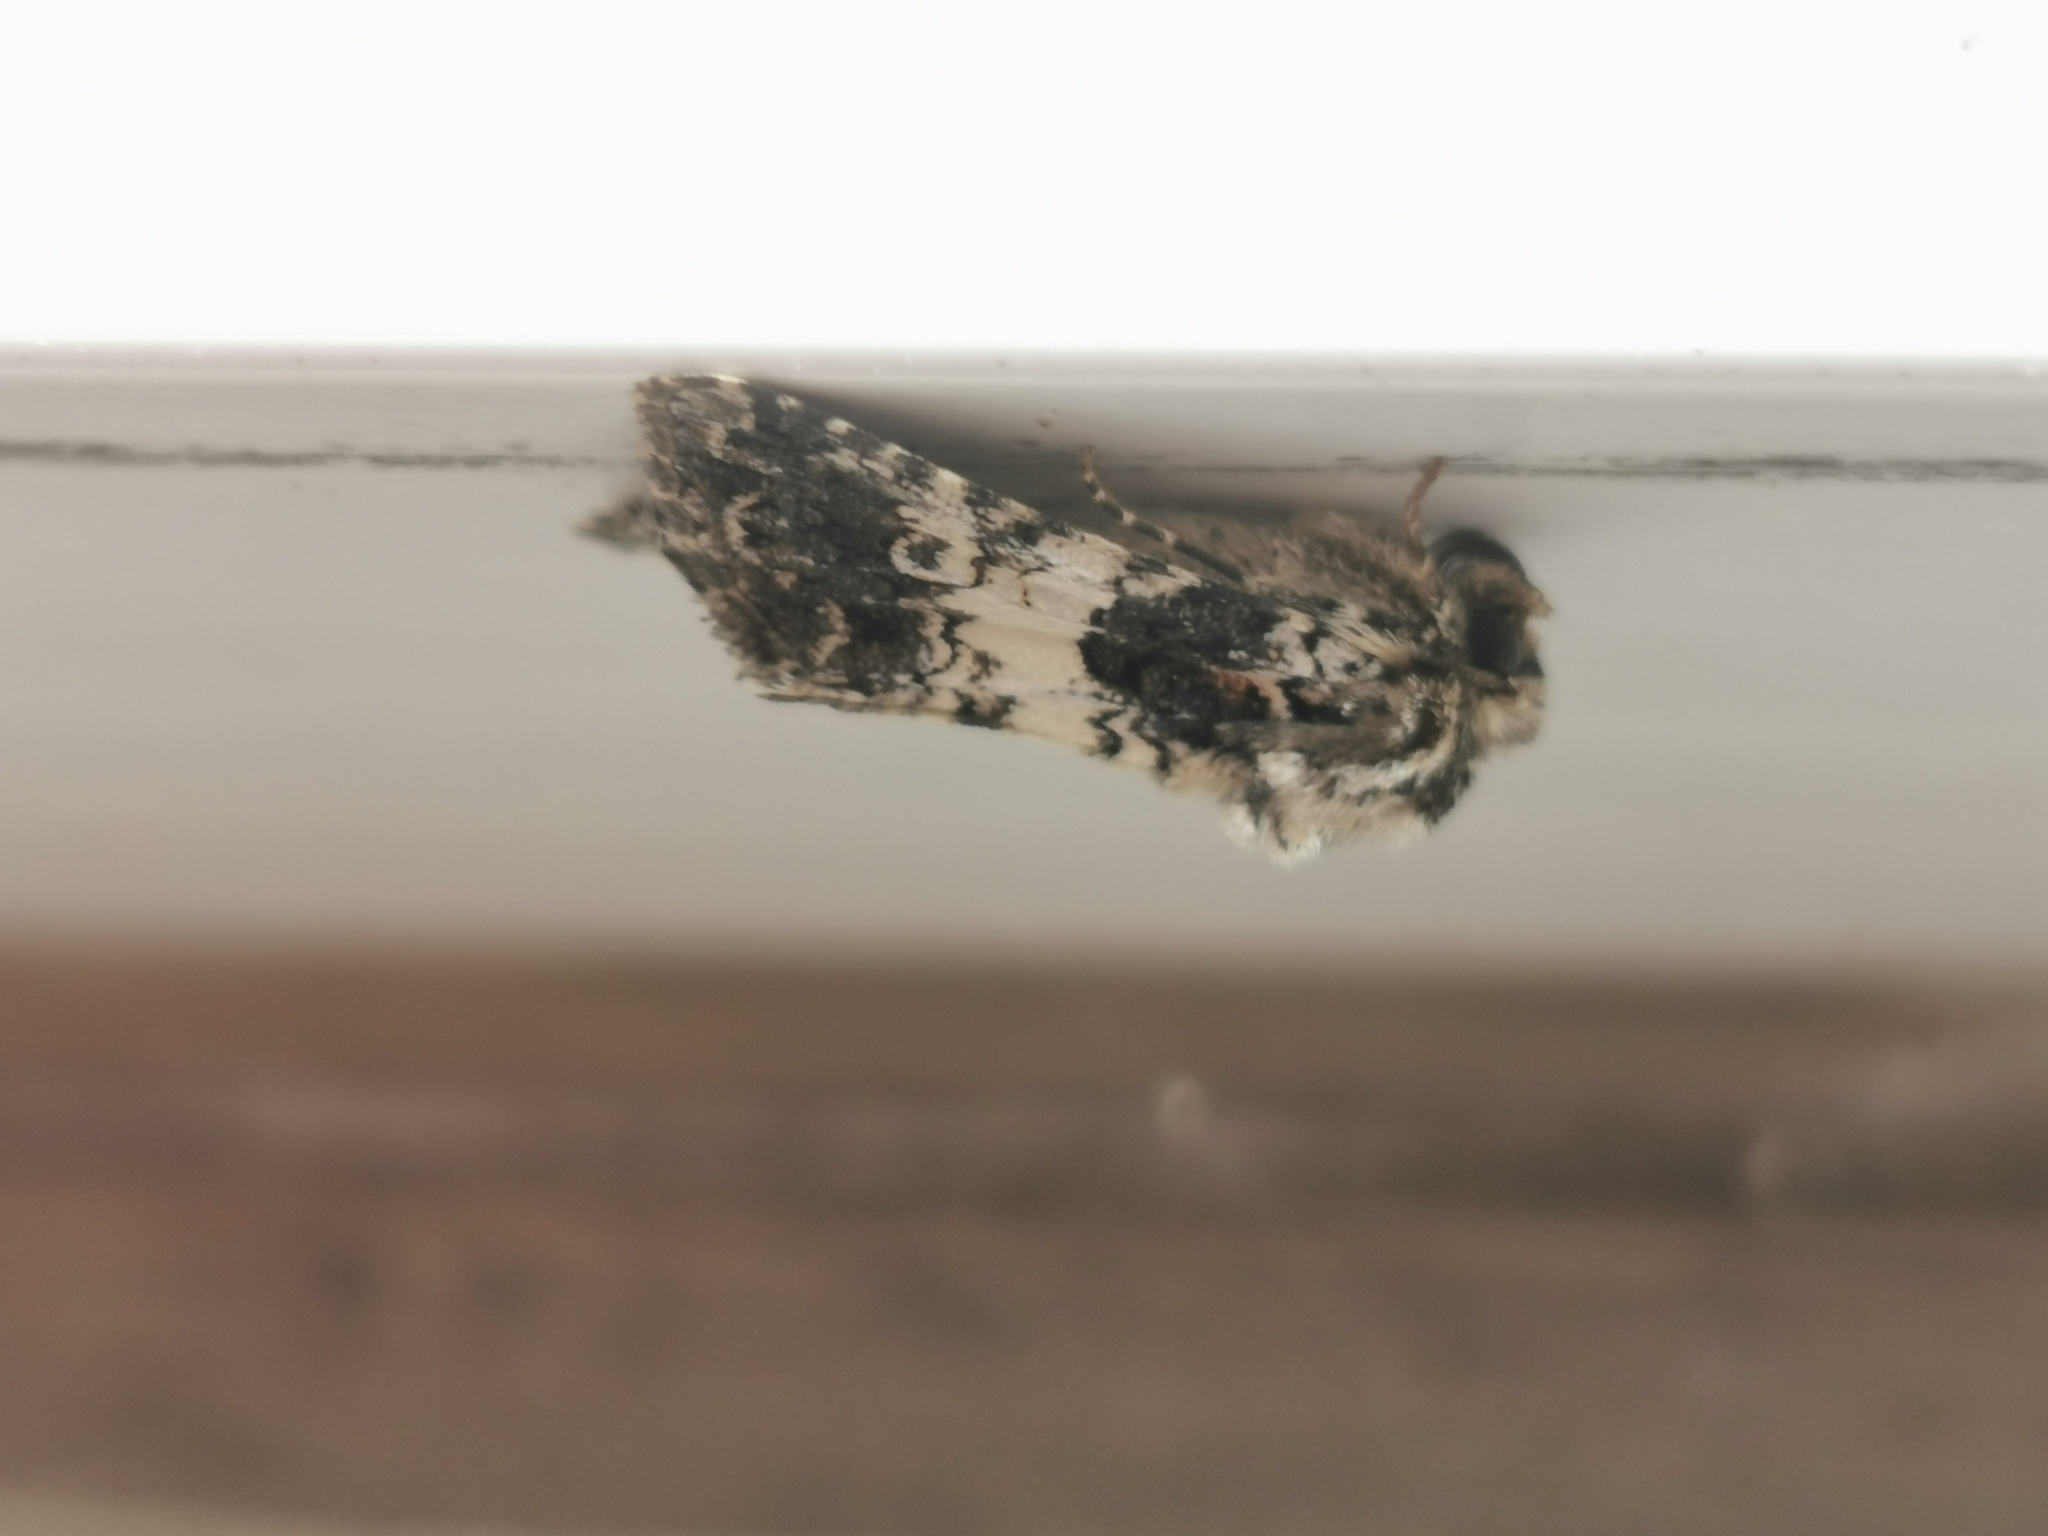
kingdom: Animalia
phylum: Arthropoda
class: Insecta
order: Lepidoptera
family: Noctuidae
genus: Hadena
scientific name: Hadena compta
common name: Varied coronet
